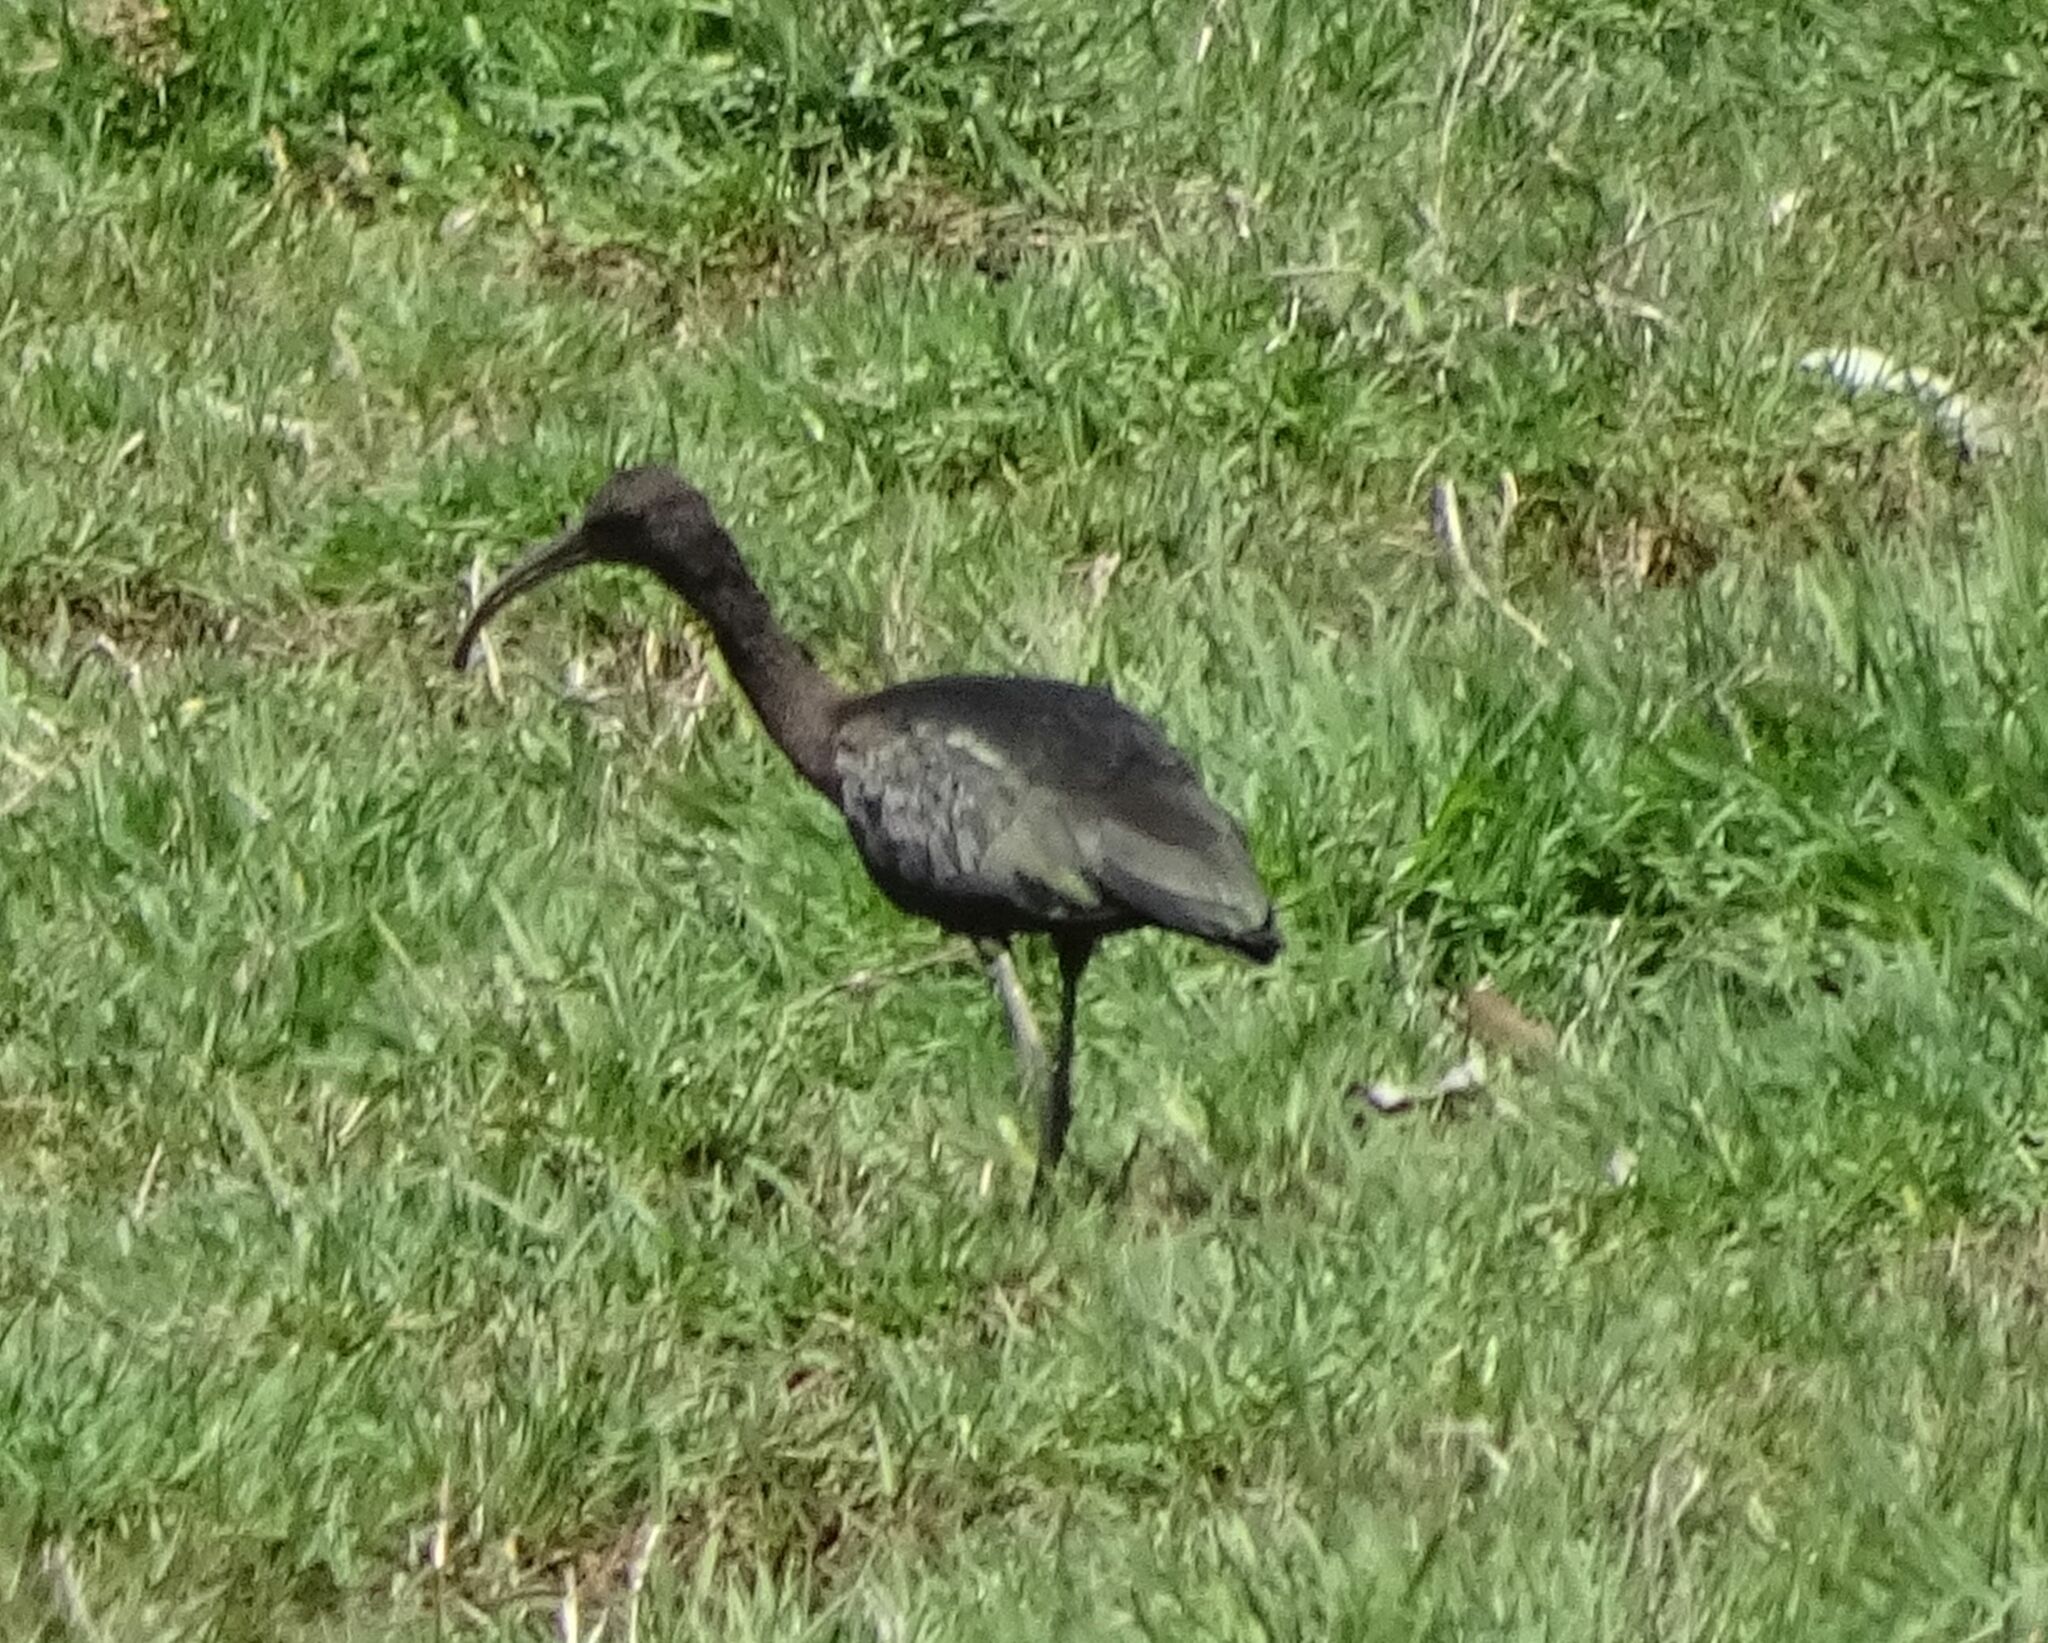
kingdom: Animalia
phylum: Chordata
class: Aves
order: Pelecaniformes
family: Threskiornithidae
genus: Plegadis
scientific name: Plegadis falcinellus
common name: Glossy ibis
